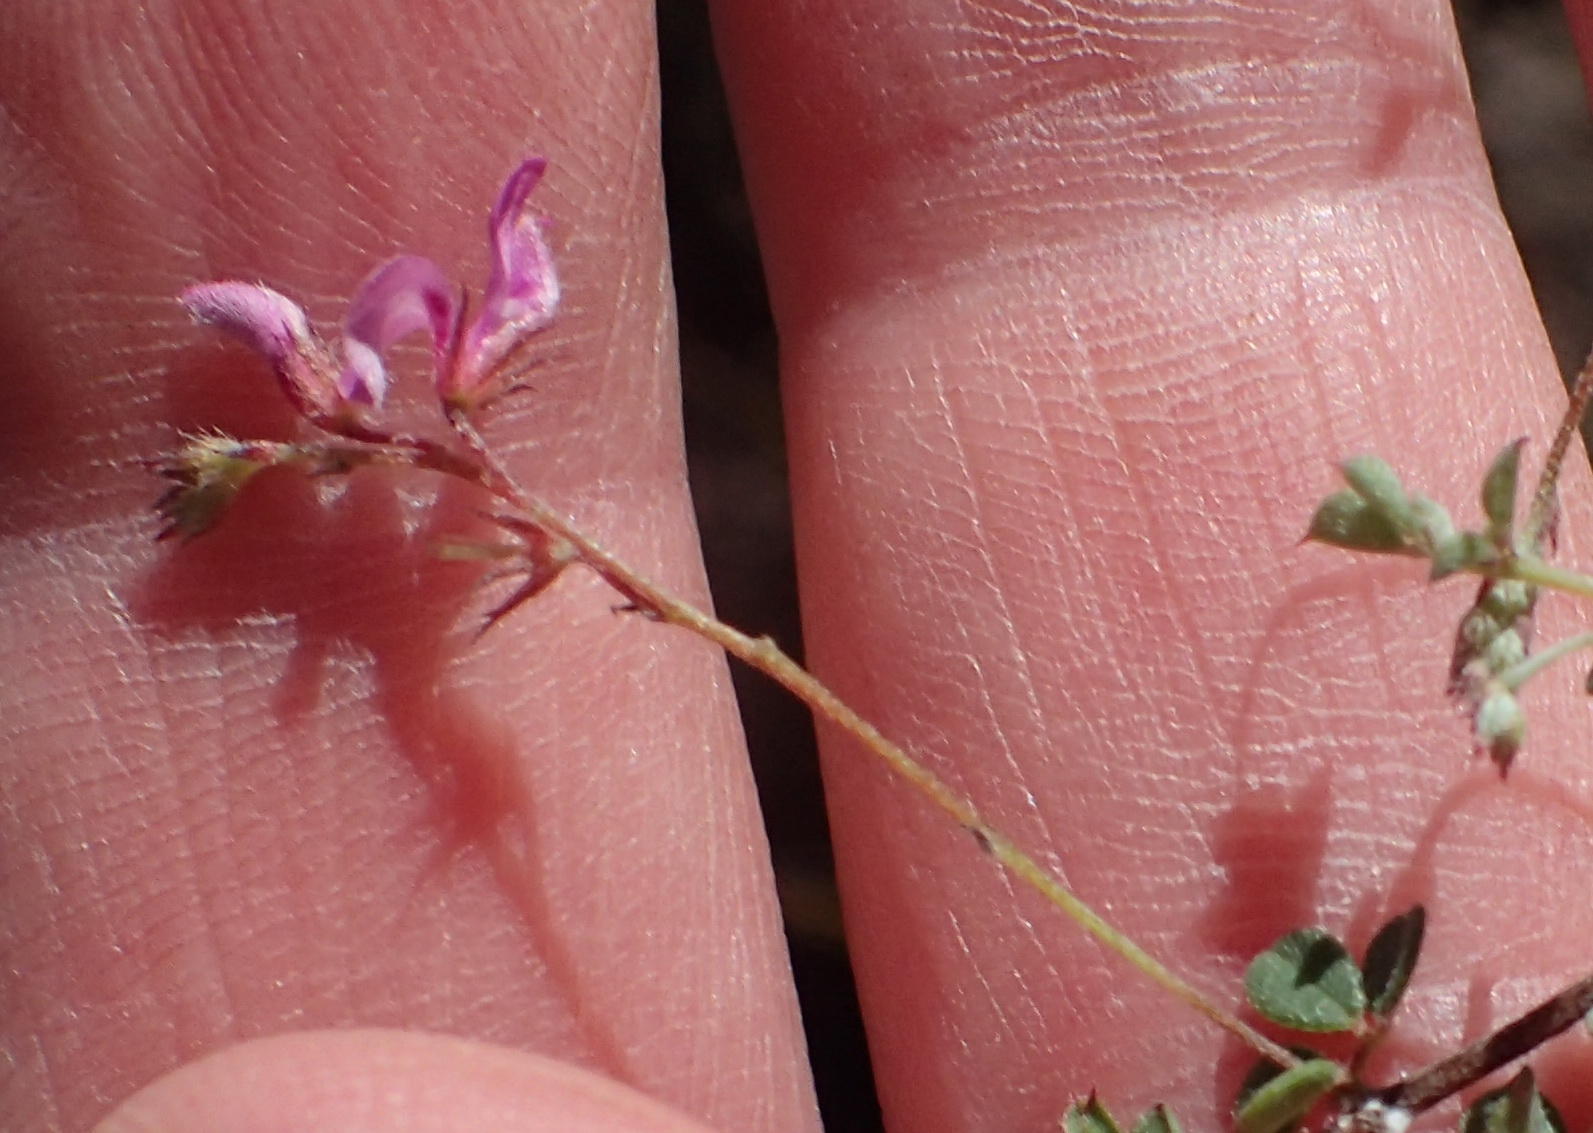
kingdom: Plantae
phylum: Tracheophyta
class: Magnoliopsida
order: Fabales
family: Fabaceae
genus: Indigofera
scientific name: Indigofera alopecuroides
